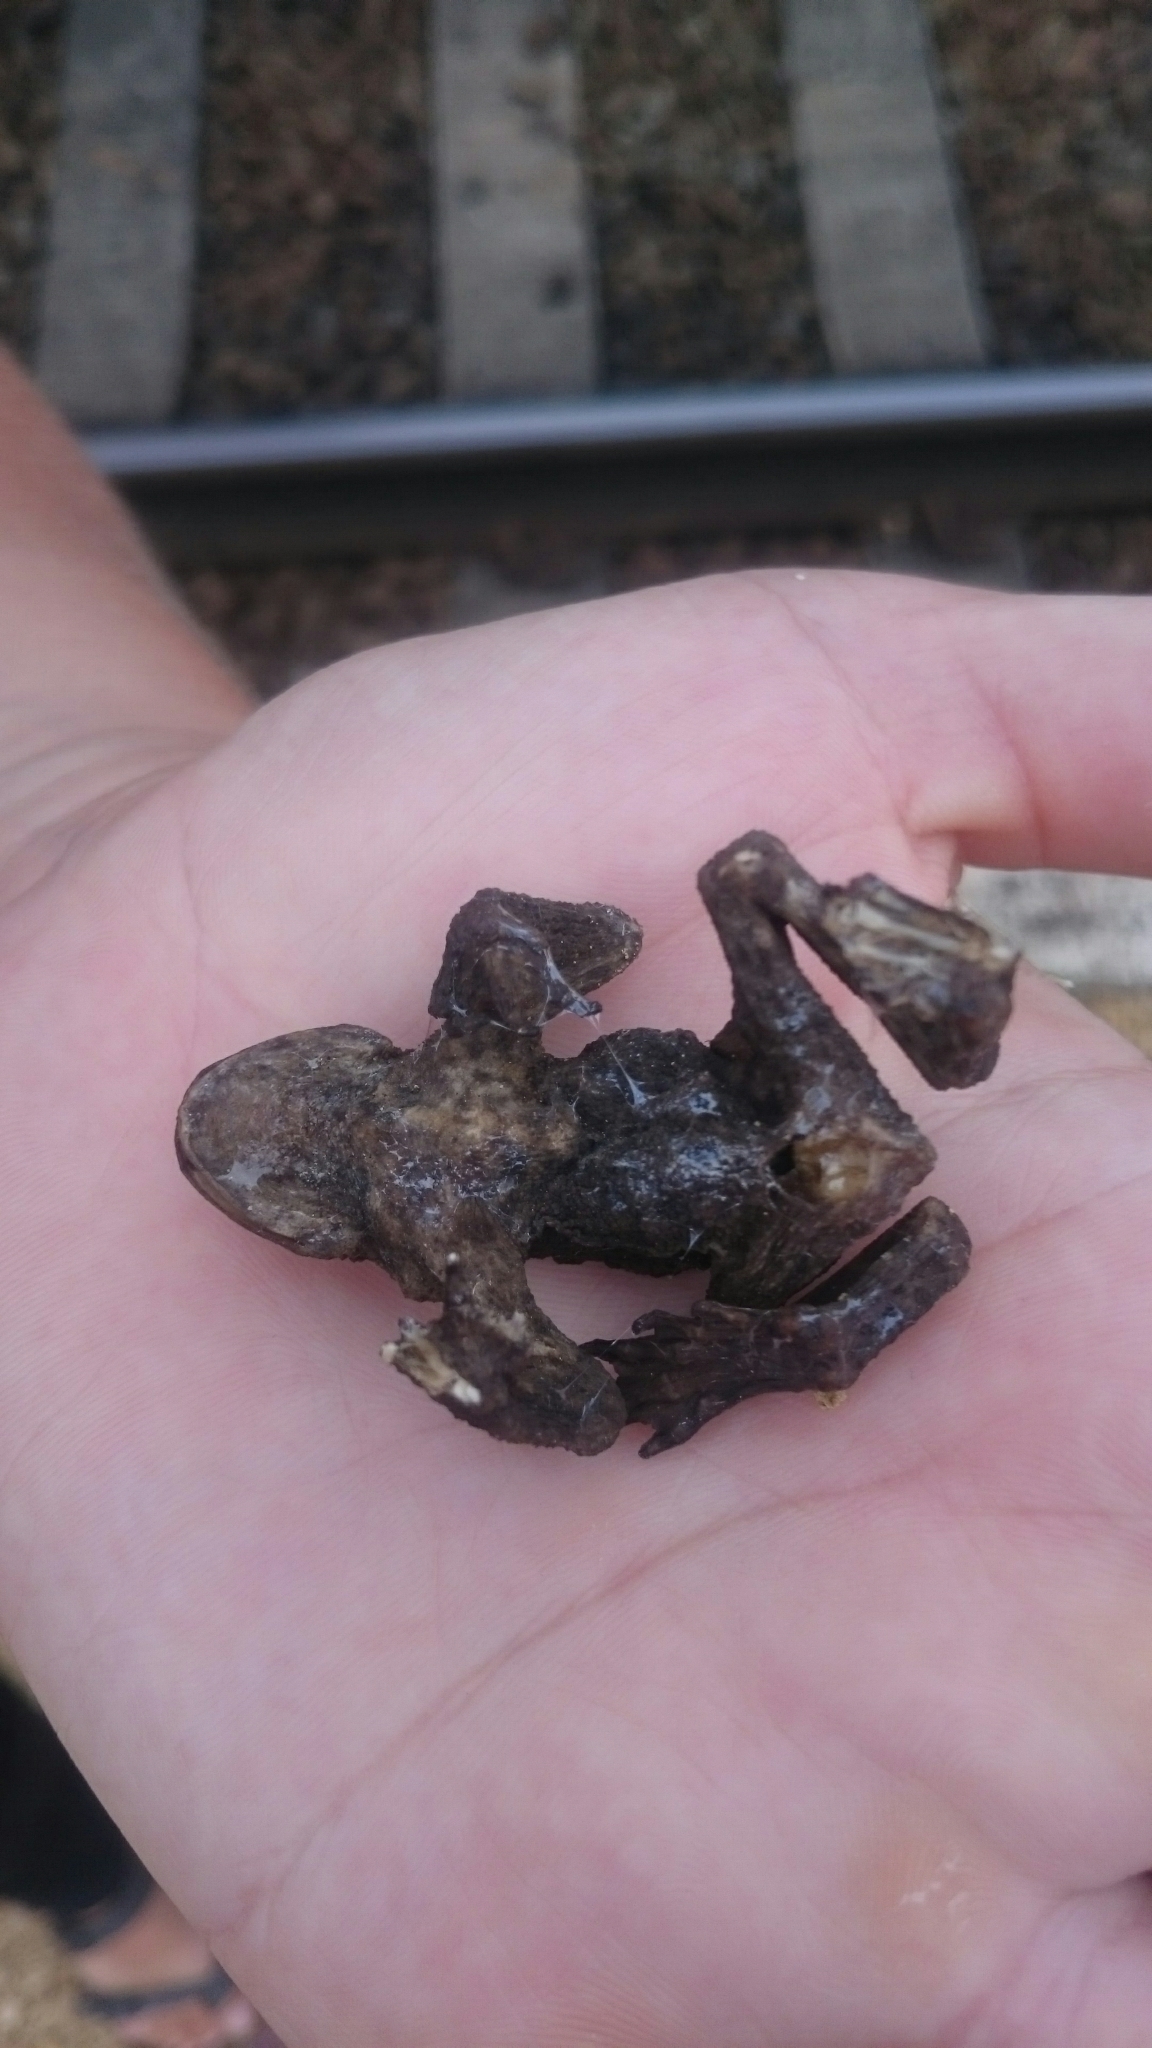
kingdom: Animalia
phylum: Chordata
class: Amphibia
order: Anura
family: Bufonidae
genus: Bufo
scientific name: Bufo bufo
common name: Common toad
